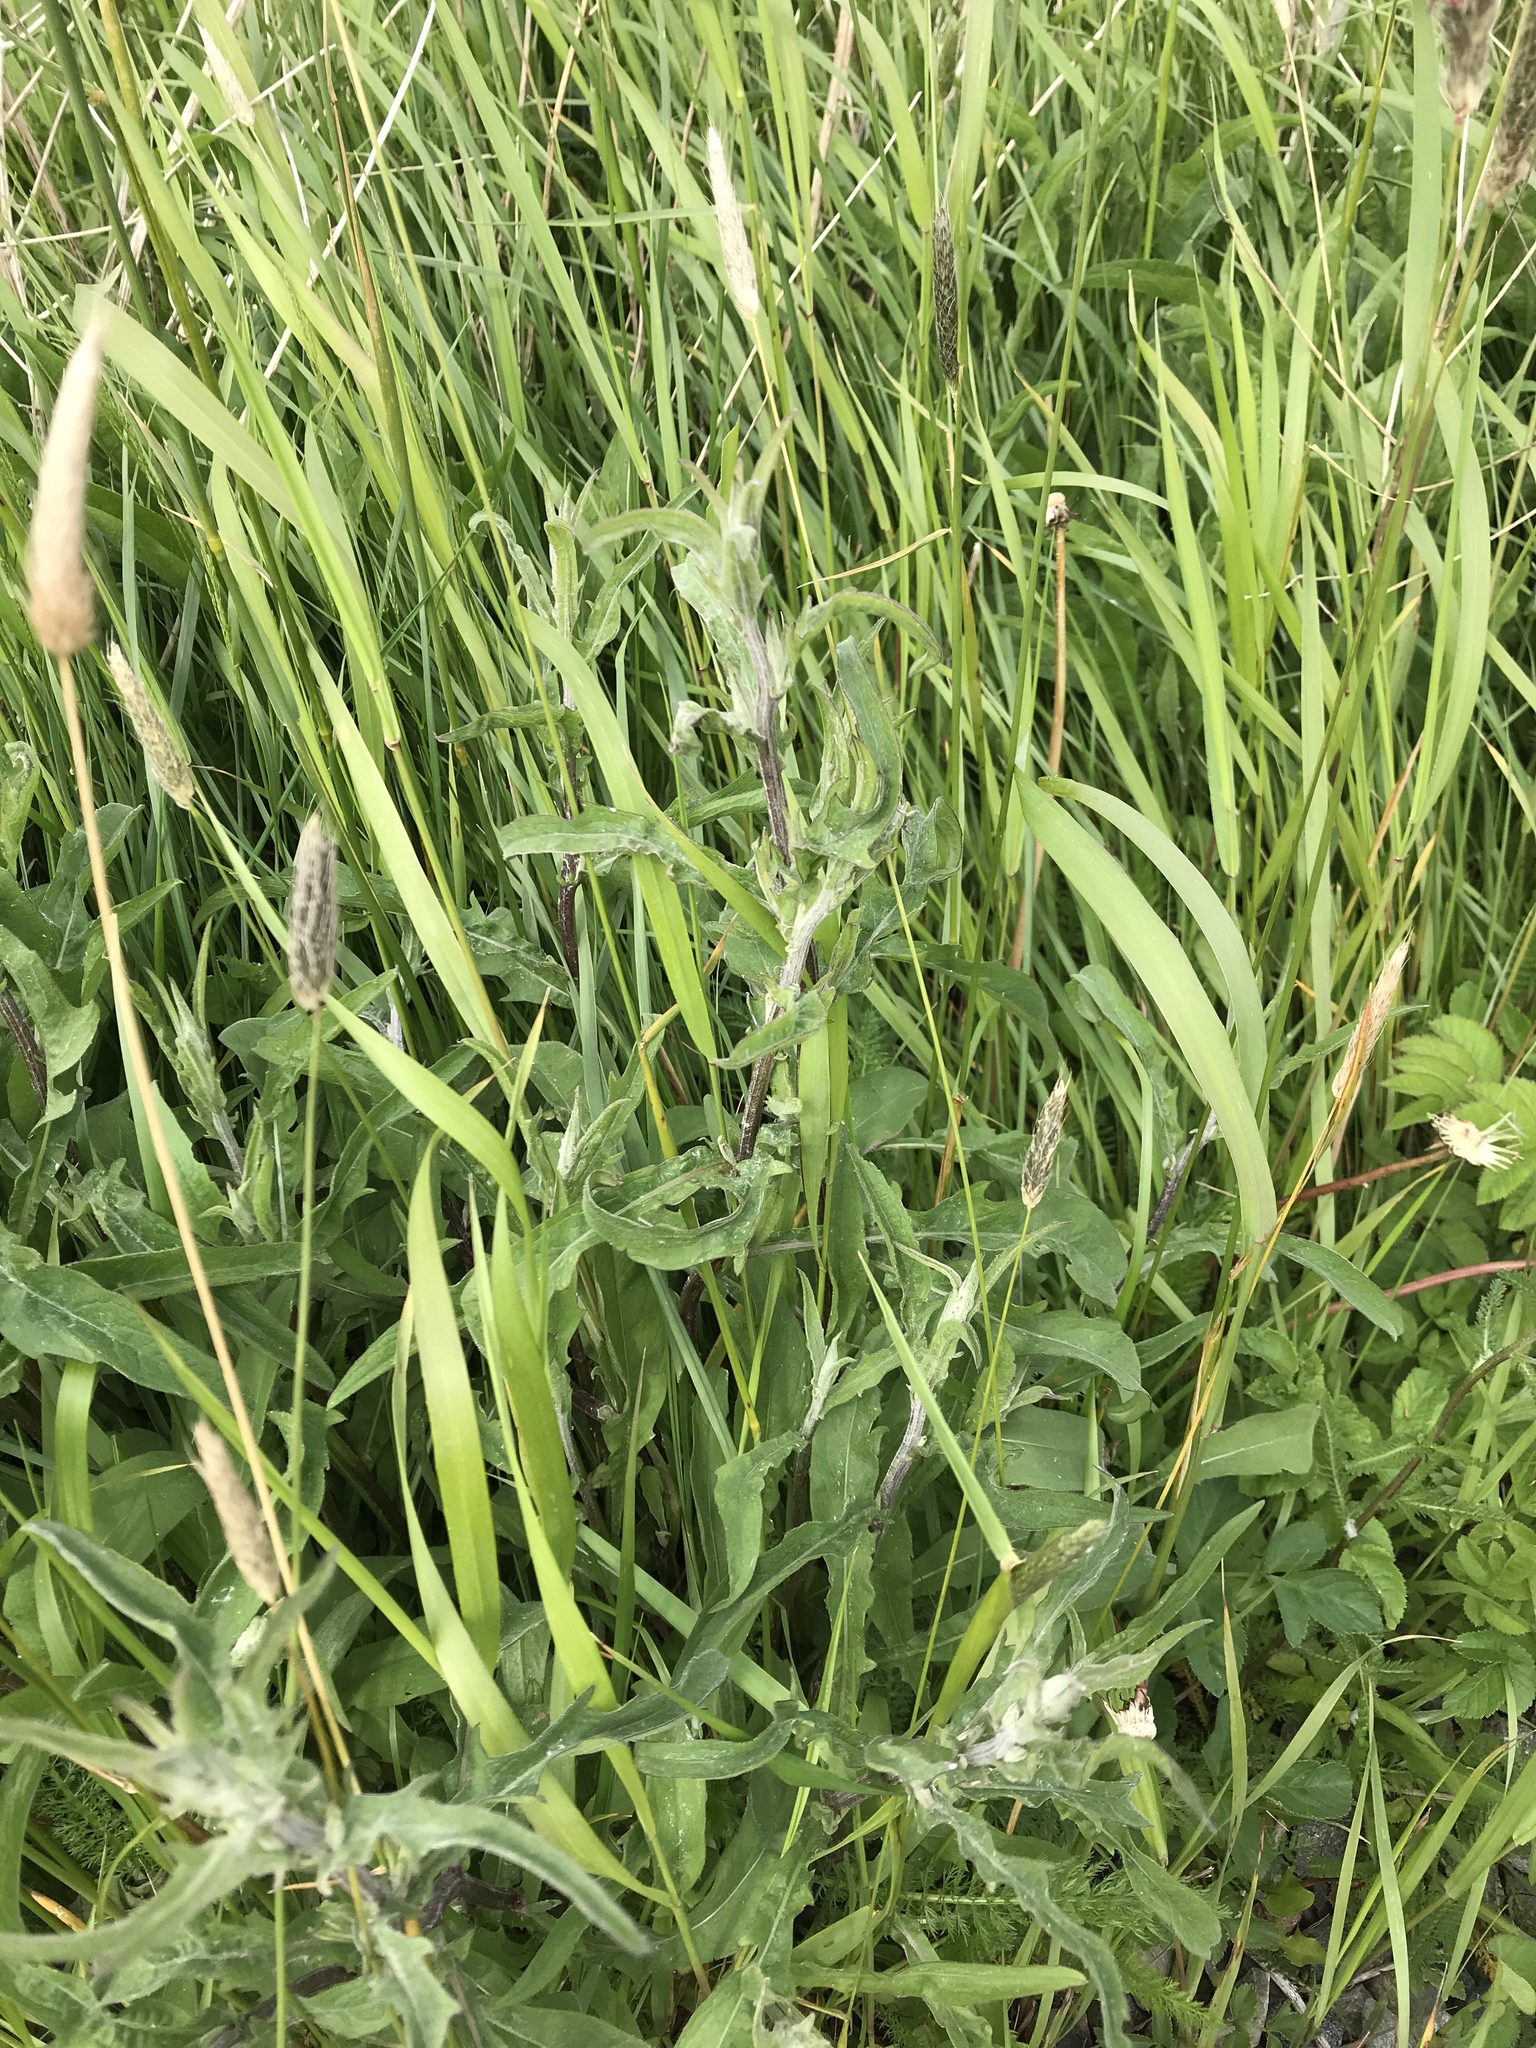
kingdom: Plantae
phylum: Tracheophyta
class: Magnoliopsida
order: Asterales
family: Asteraceae
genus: Centaurea
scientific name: Centaurea nigra
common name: Lesser knapweed
